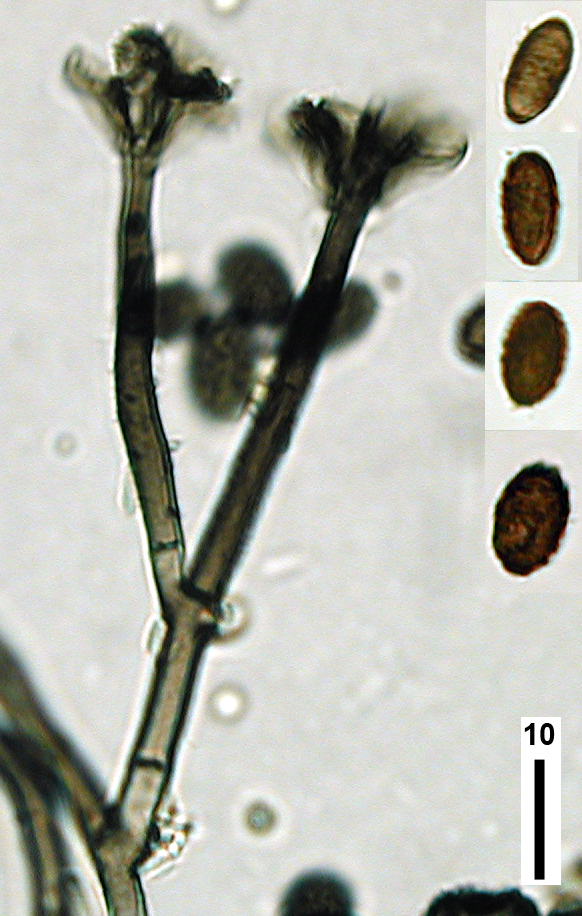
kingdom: Fungi
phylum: Ascomycota
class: Sordariomycetes
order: Hypocreales
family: Stachybotryaceae
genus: Stachybotrys
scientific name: Stachybotrys chartarum
